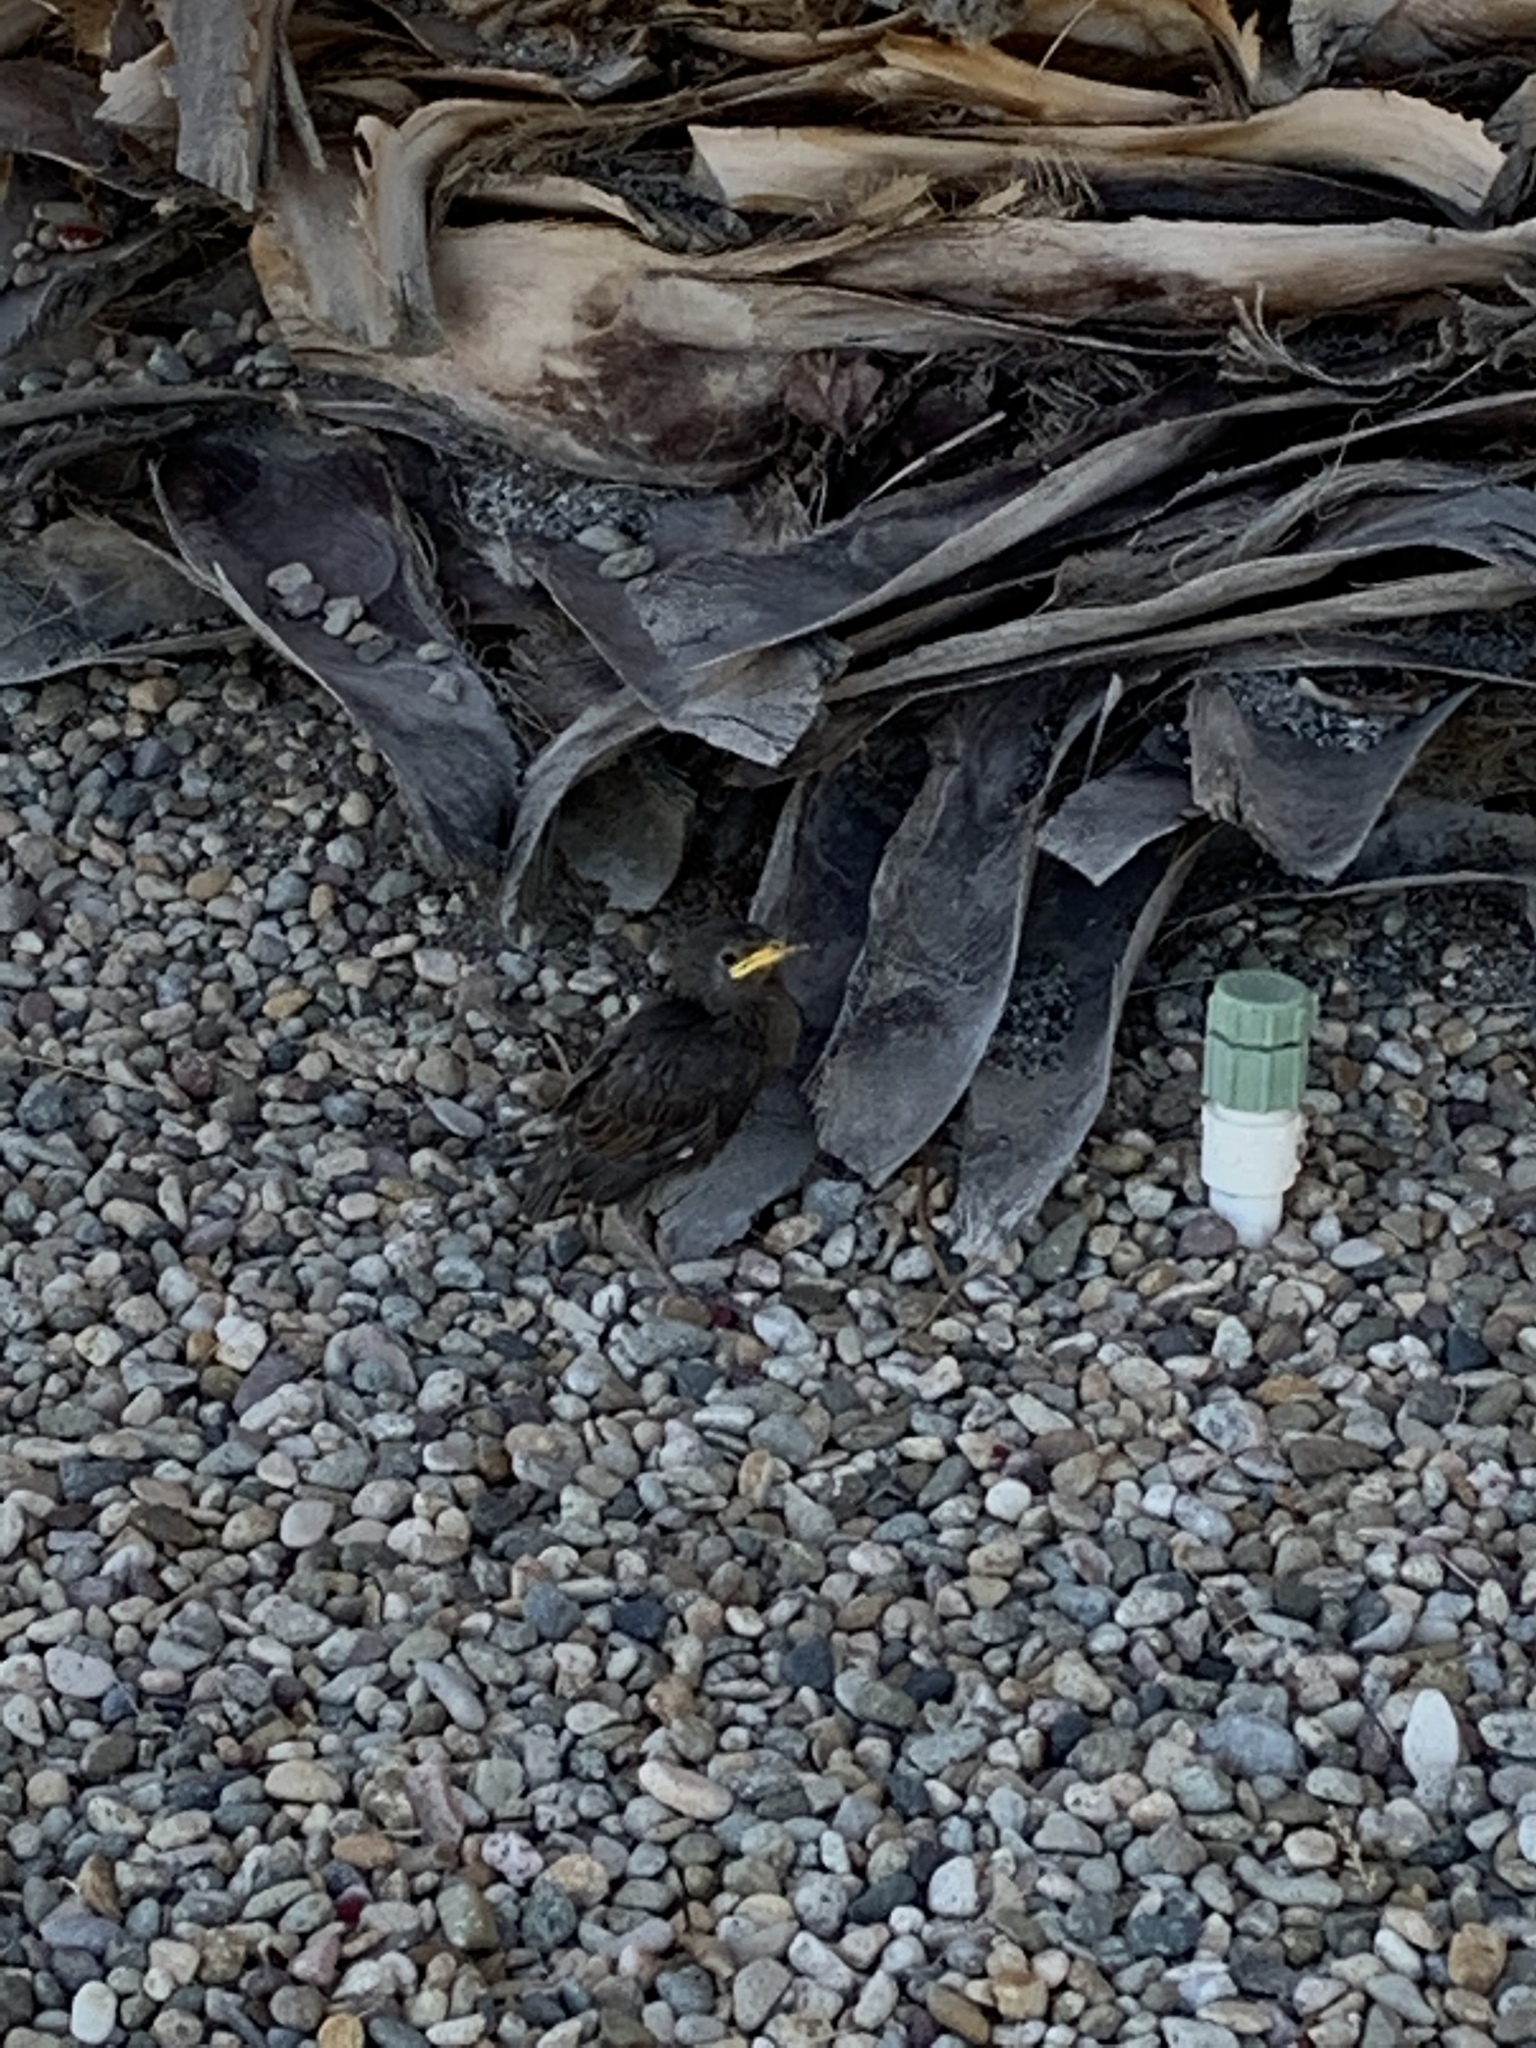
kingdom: Animalia
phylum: Chordata
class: Aves
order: Passeriformes
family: Sturnidae
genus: Sturnus
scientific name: Sturnus vulgaris
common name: Common starling
